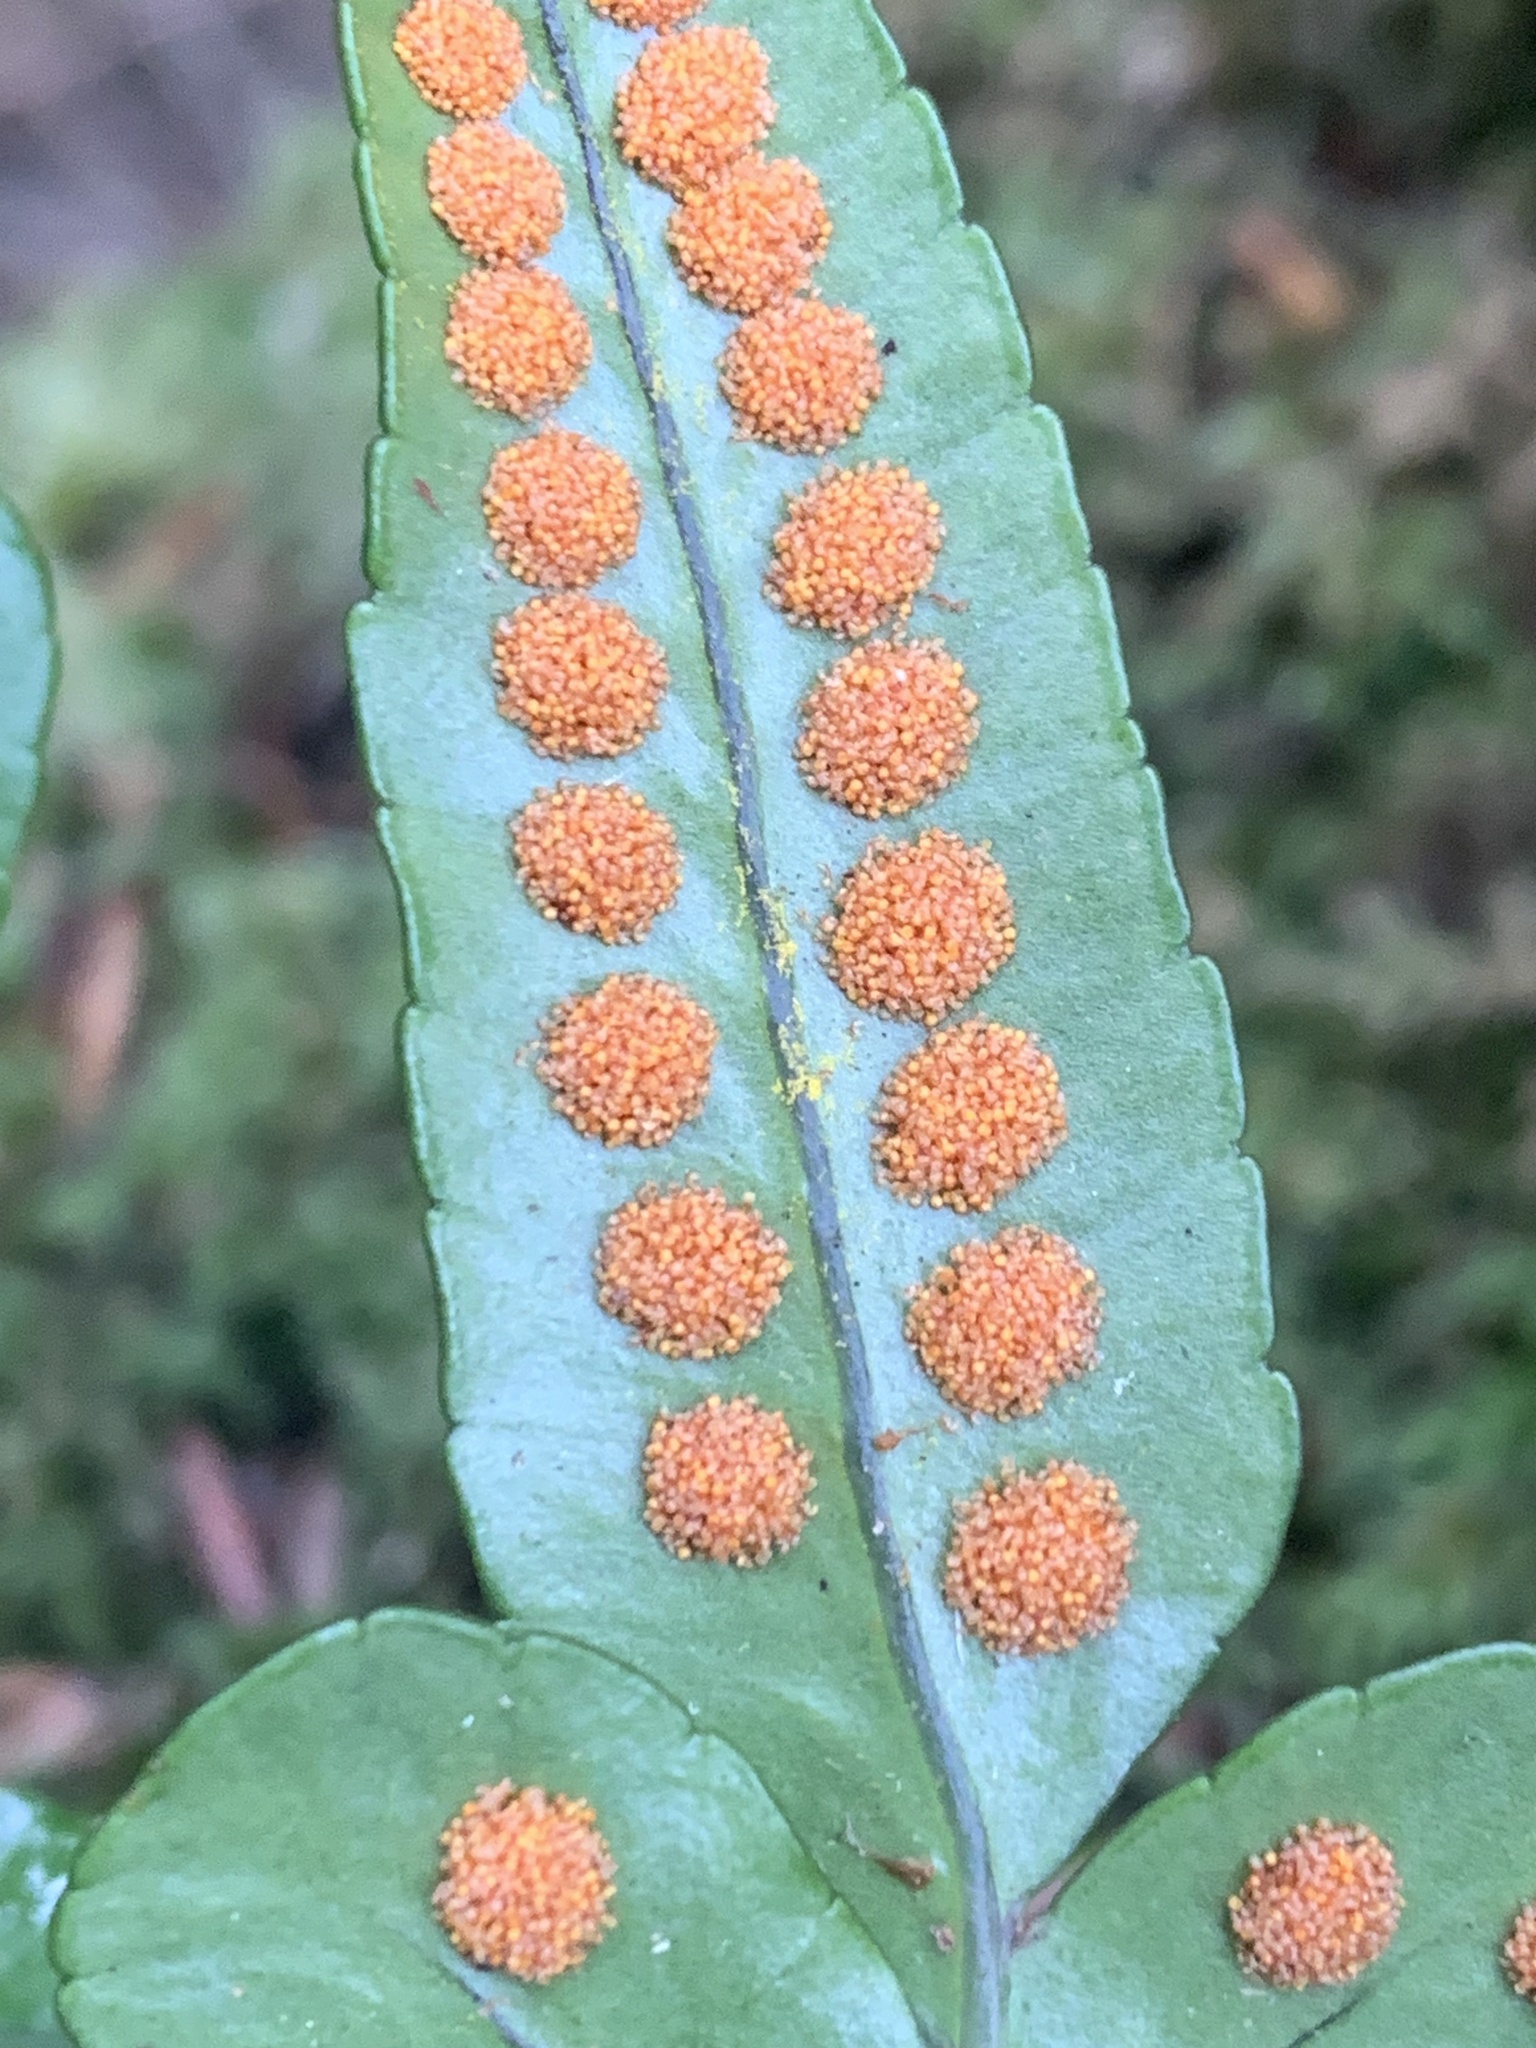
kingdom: Plantae
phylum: Tracheophyta
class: Polypodiopsida
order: Polypodiales
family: Polypodiaceae
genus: Polypodium
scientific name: Polypodium scouleri
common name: Scouler's polypody
